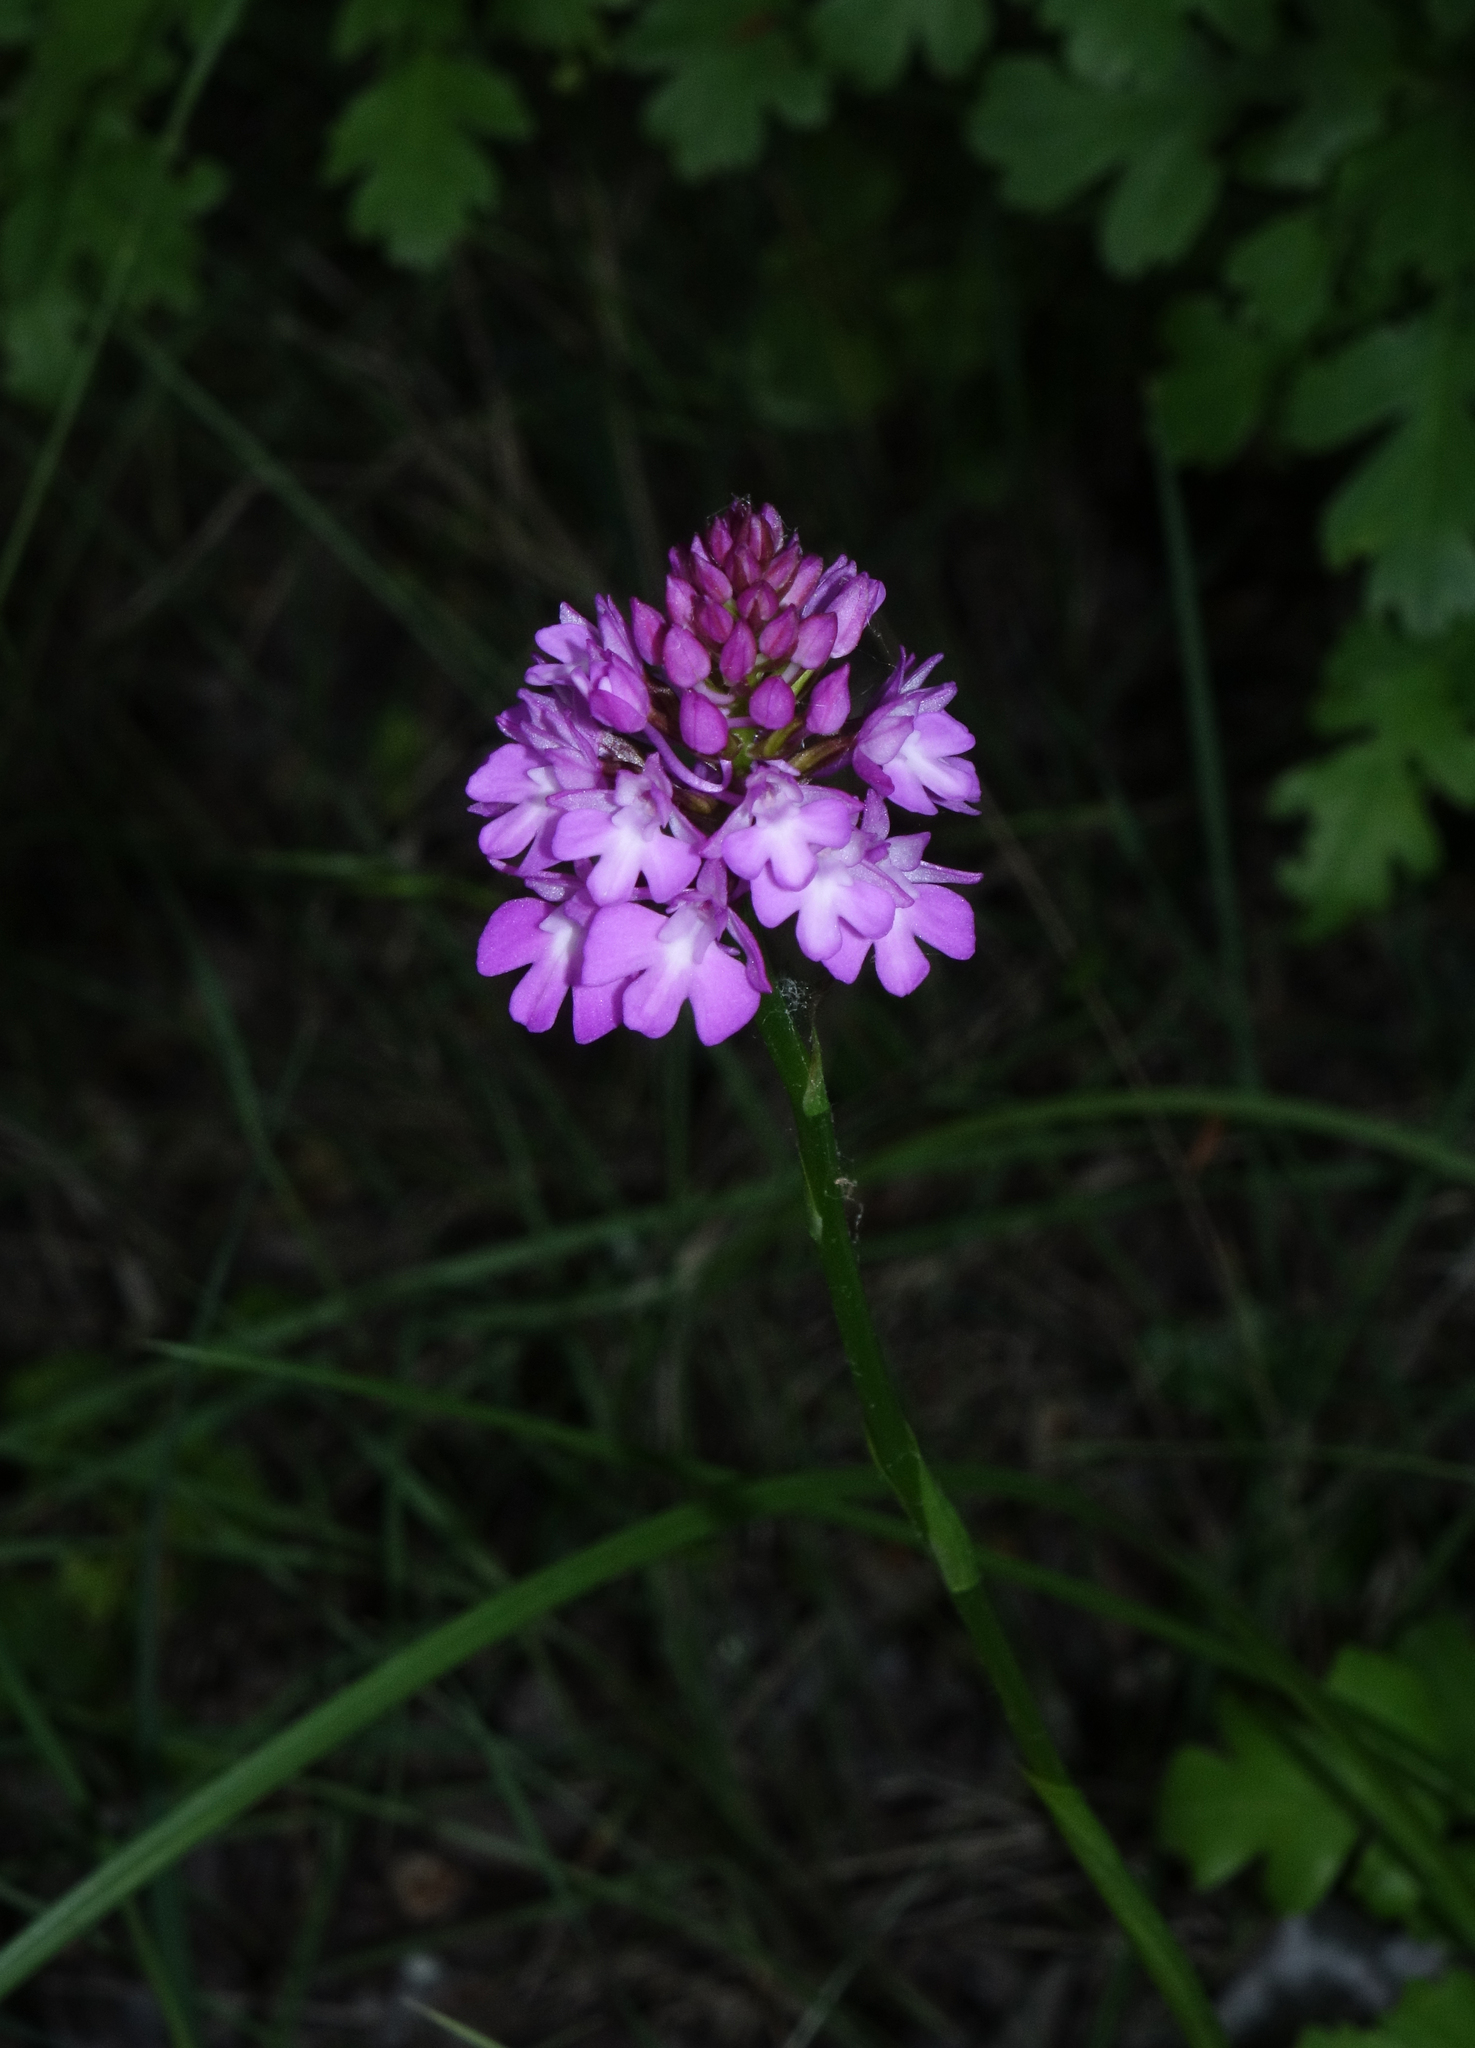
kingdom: Plantae
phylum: Tracheophyta
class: Liliopsida
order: Asparagales
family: Orchidaceae
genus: Anacamptis
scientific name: Anacamptis pyramidalis
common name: Pyramidal orchid
